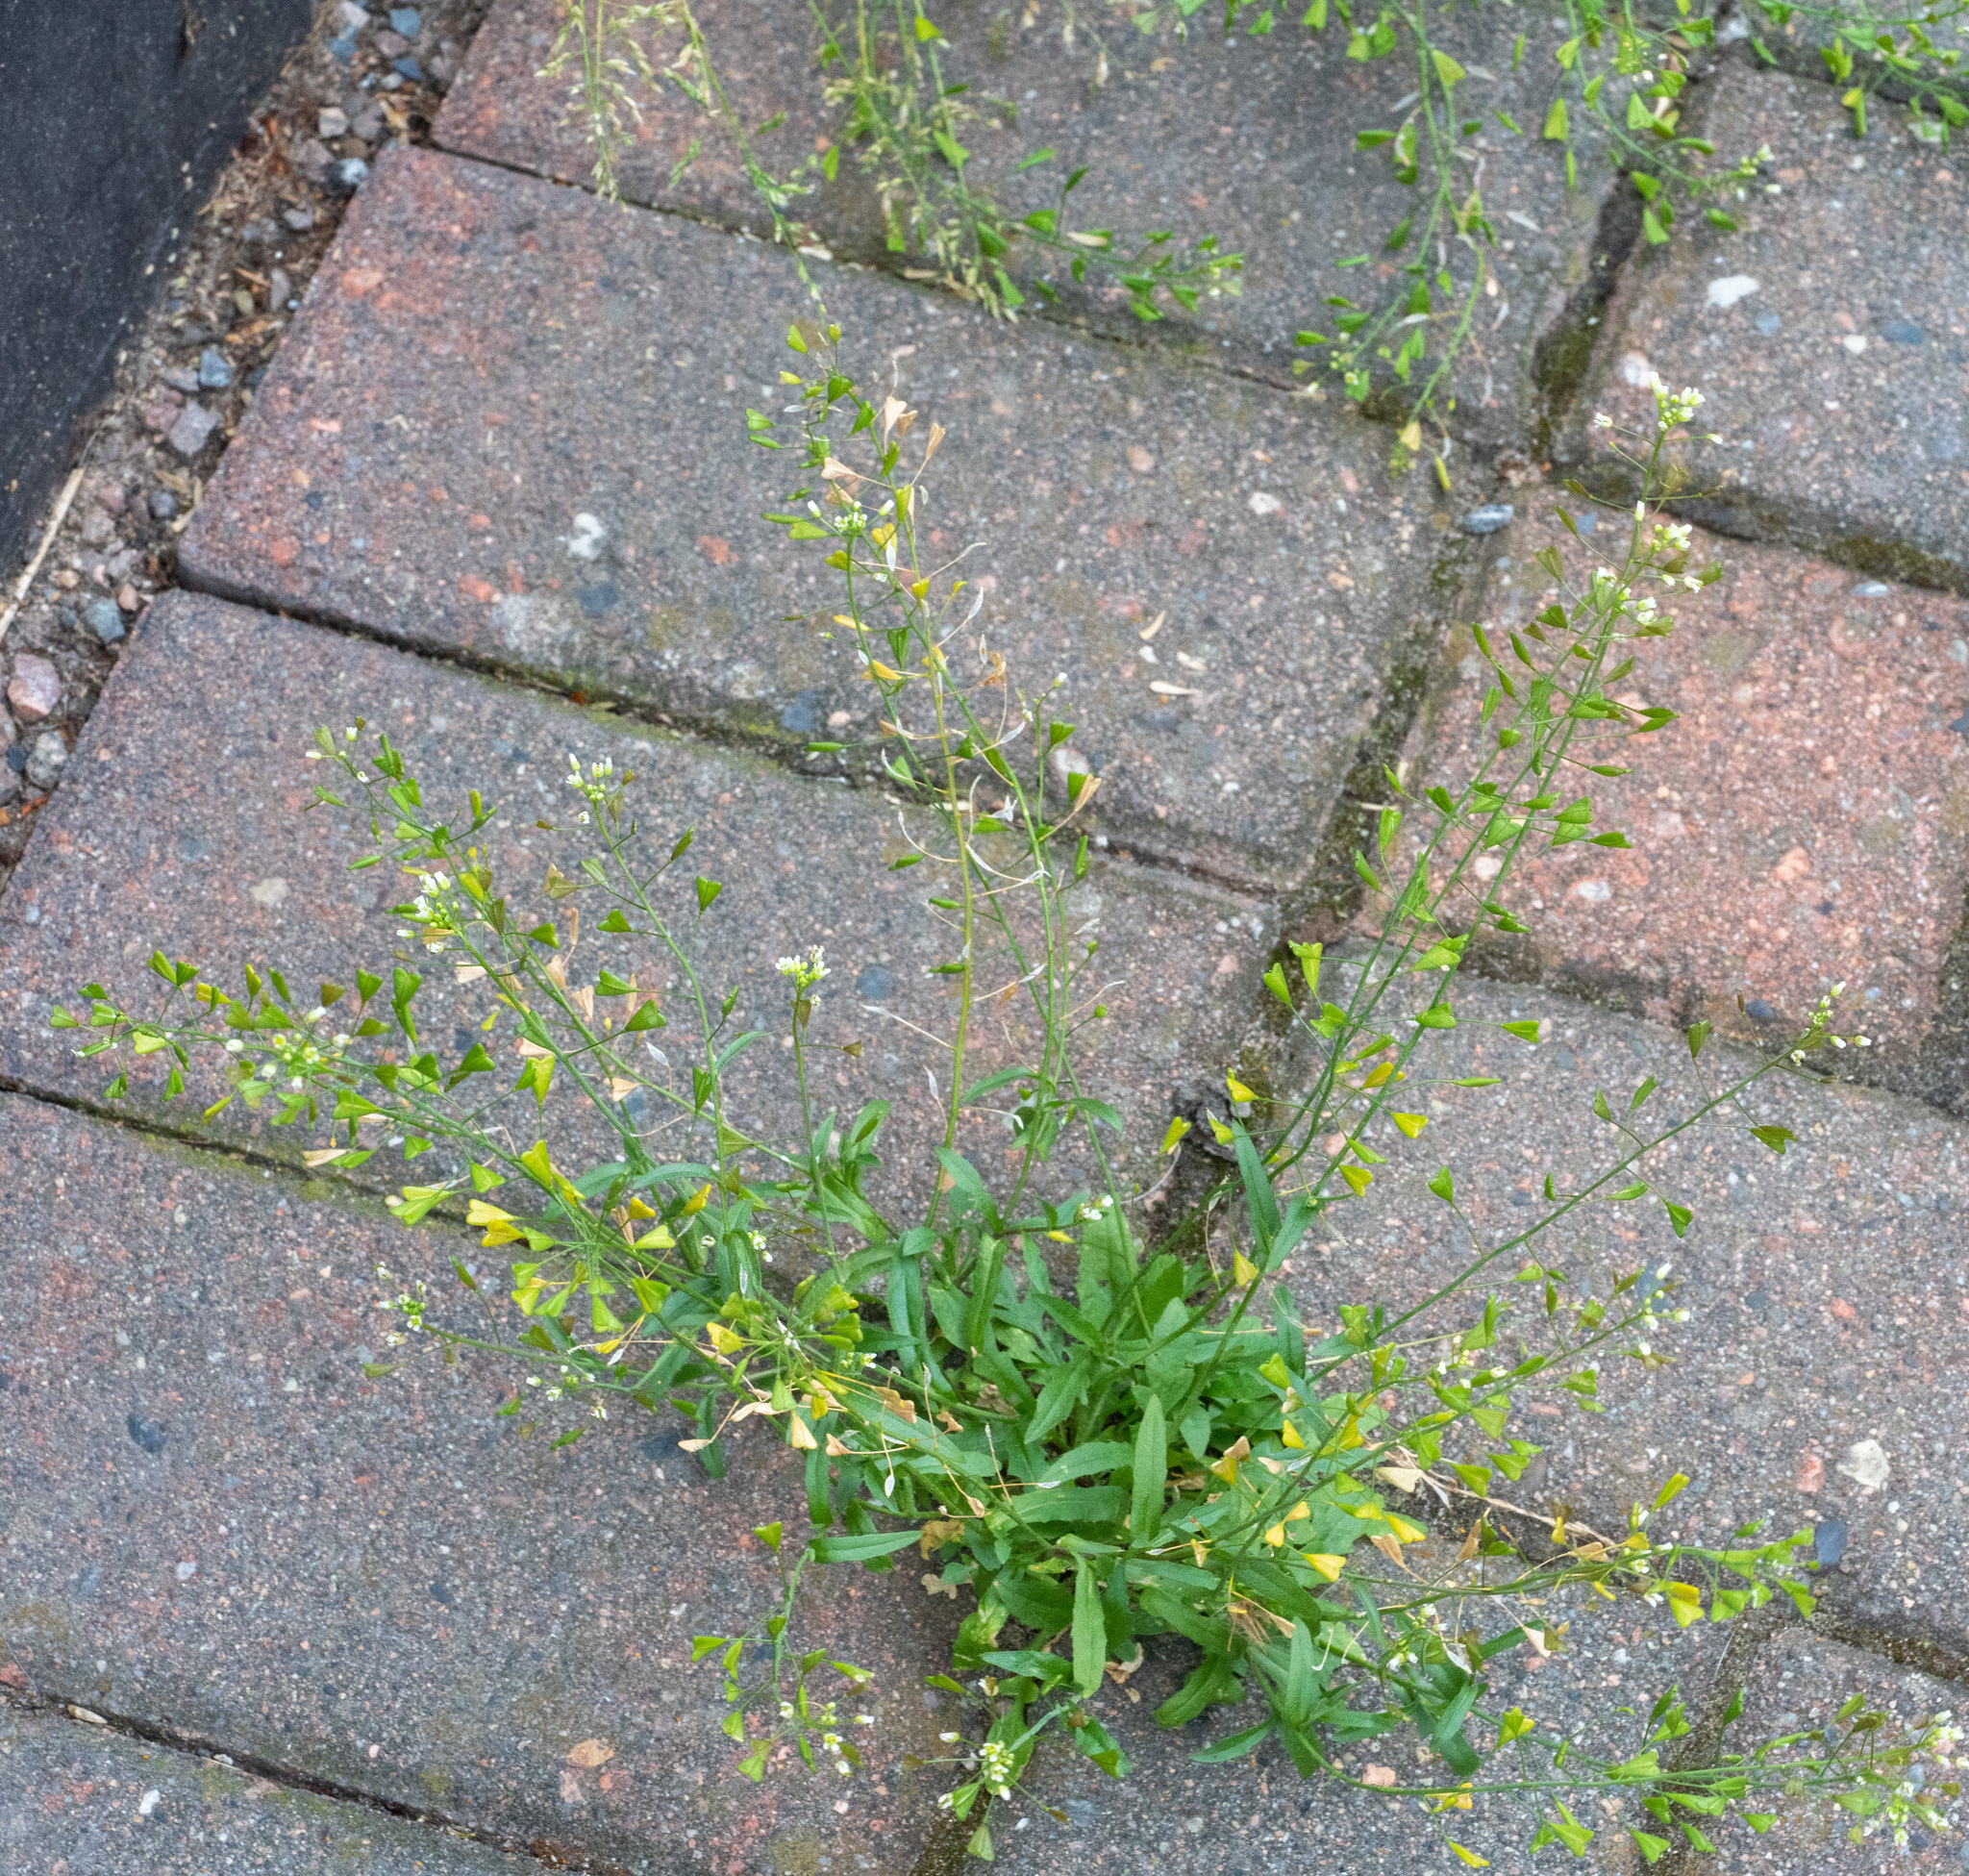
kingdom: Plantae
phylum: Tracheophyta
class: Magnoliopsida
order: Brassicales
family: Brassicaceae
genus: Capsella
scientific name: Capsella bursa-pastoris
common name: Shepherd's purse
